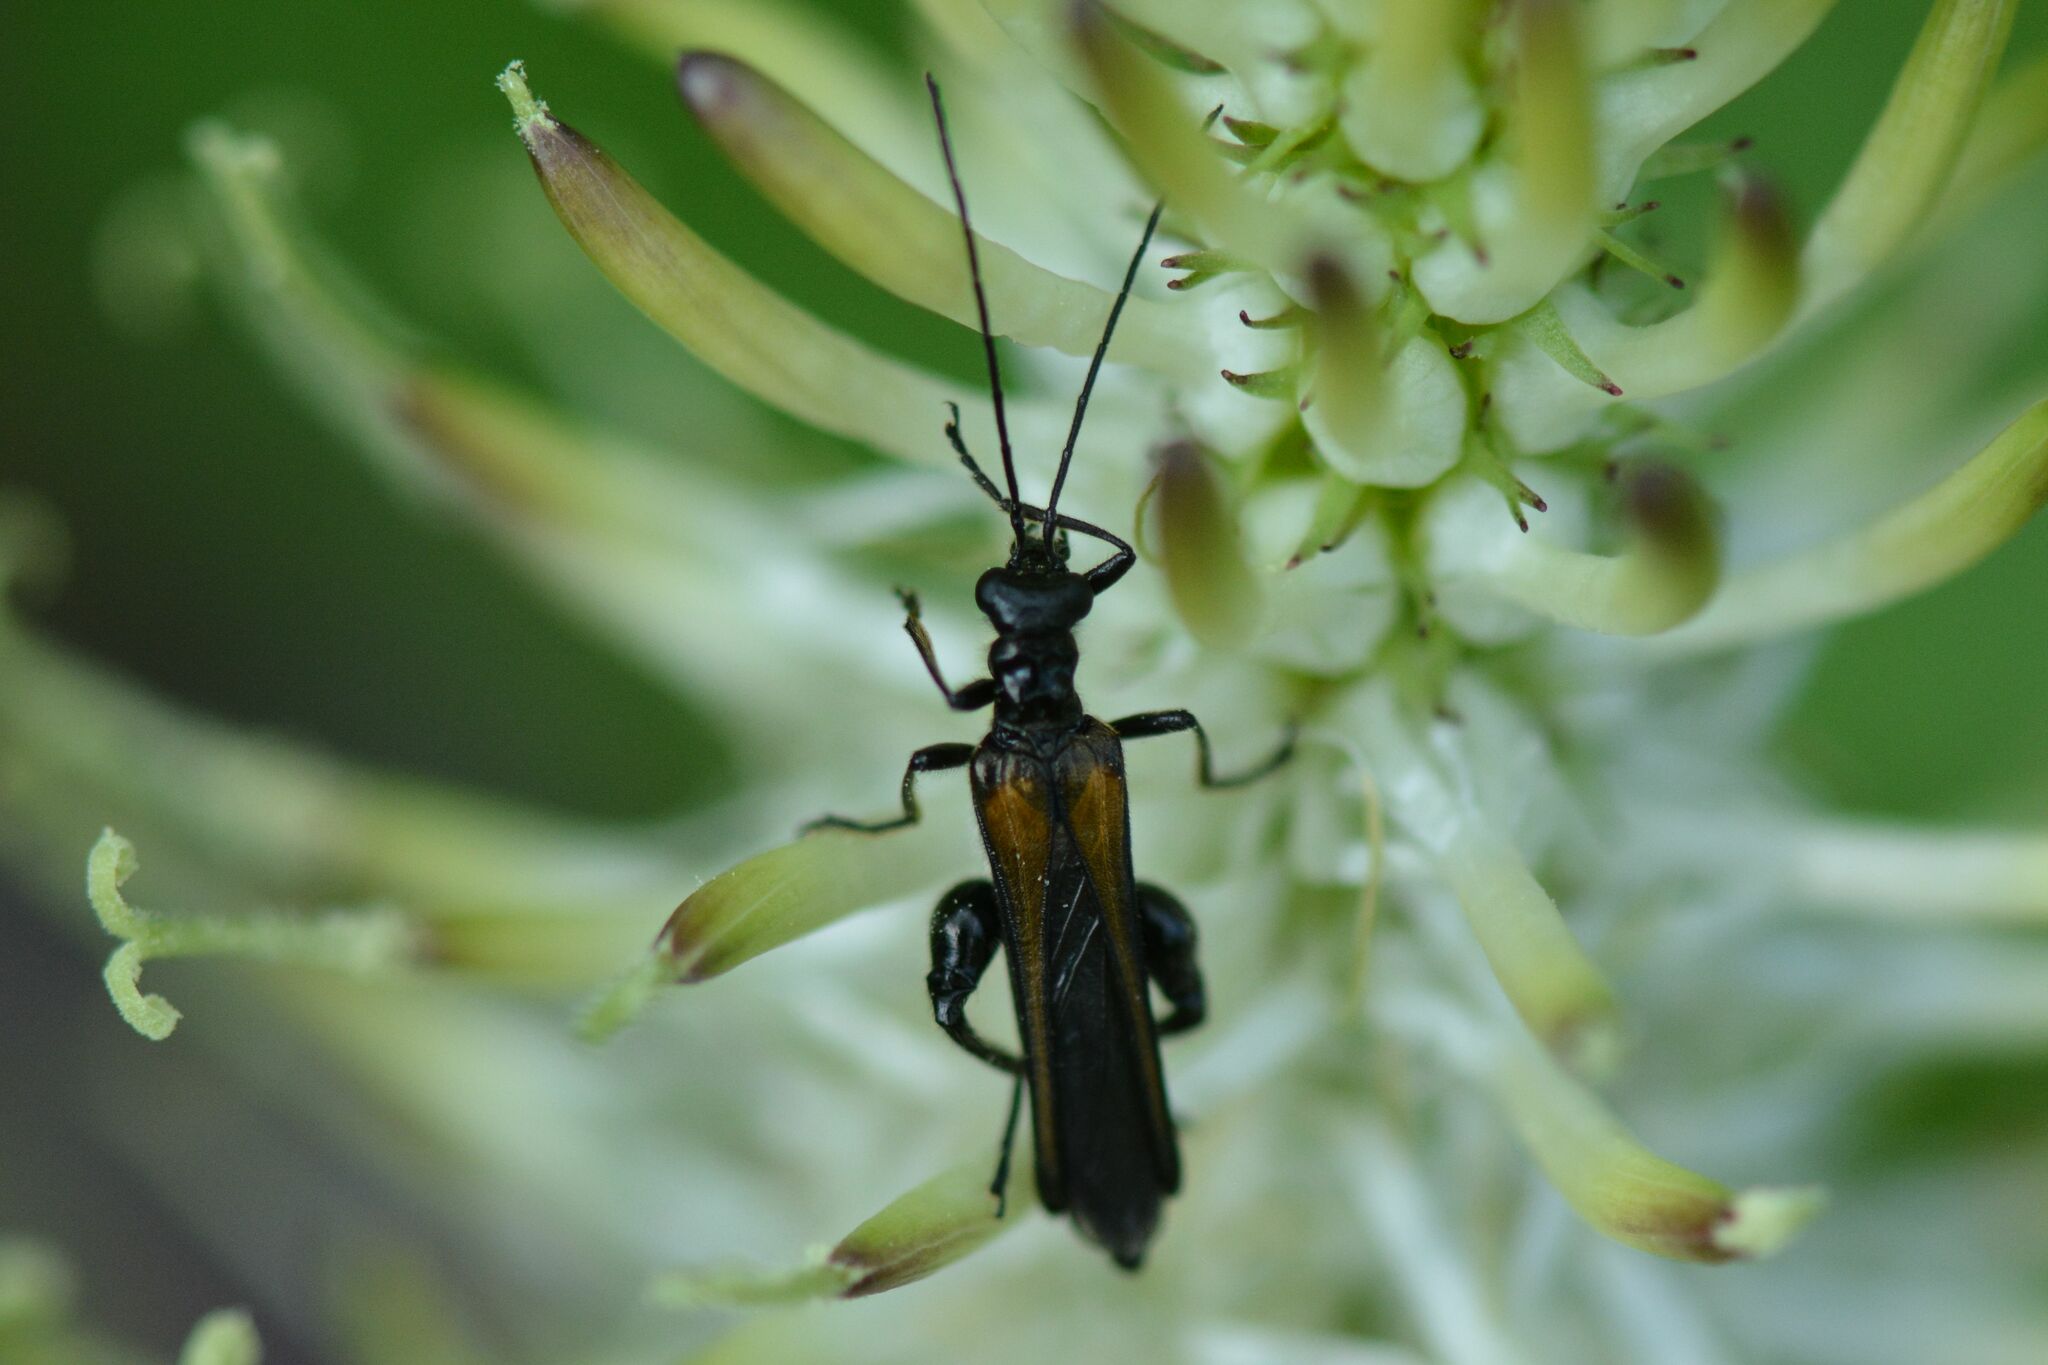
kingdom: Animalia
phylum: Arthropoda
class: Insecta
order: Coleoptera
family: Oedemeridae
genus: Oedemera
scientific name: Oedemera pthysica
